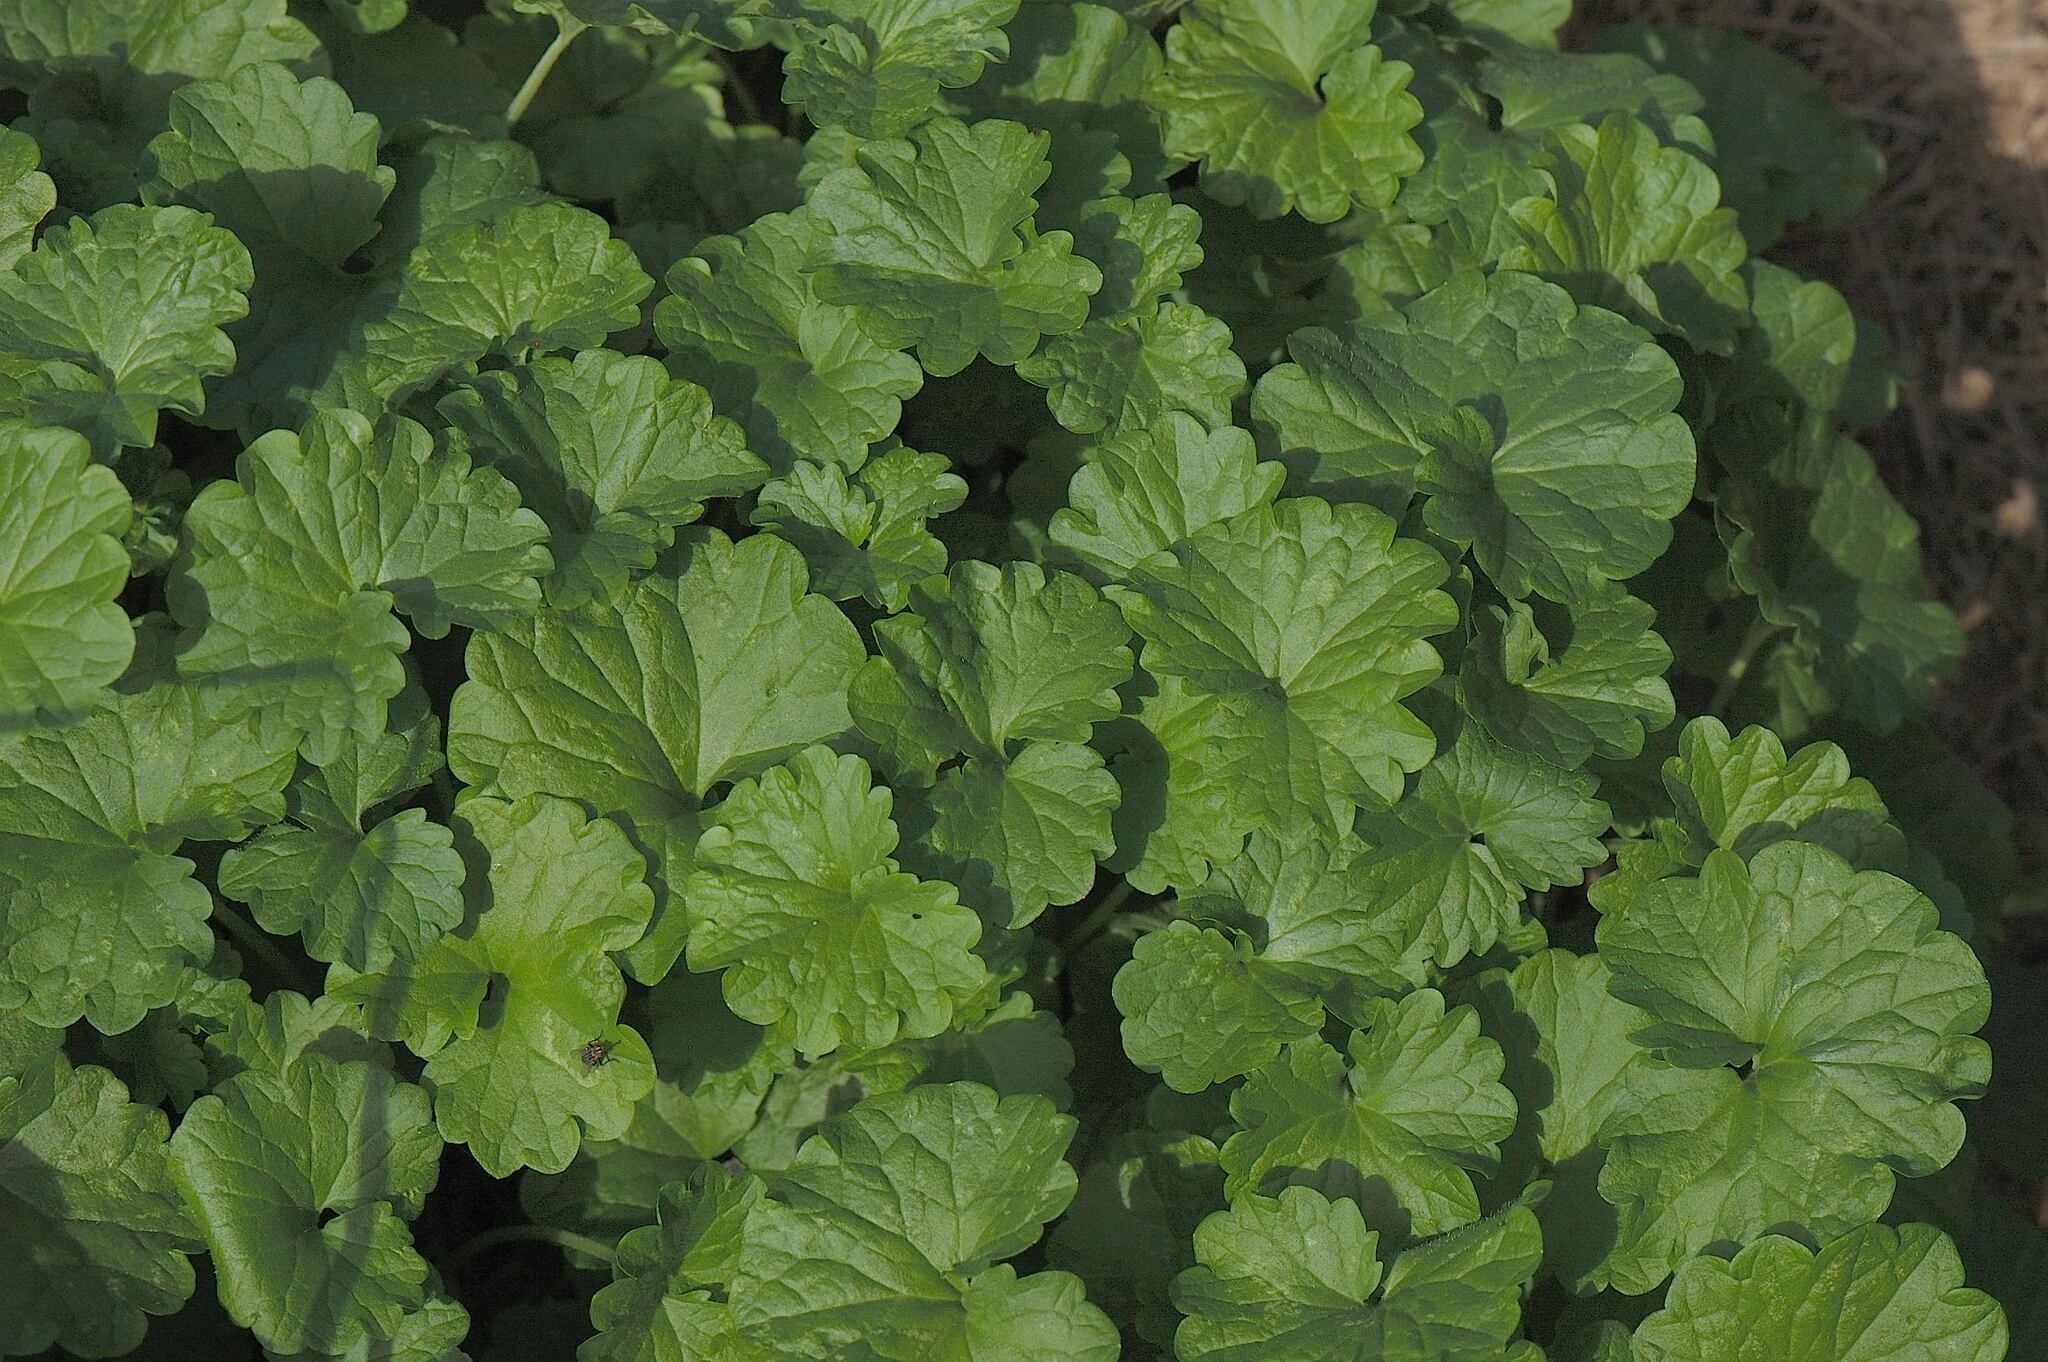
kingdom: Plantae
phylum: Tracheophyta
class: Magnoliopsida
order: Lamiales
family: Lamiaceae
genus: Glechoma
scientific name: Glechoma hederacea
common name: Ground ivy
